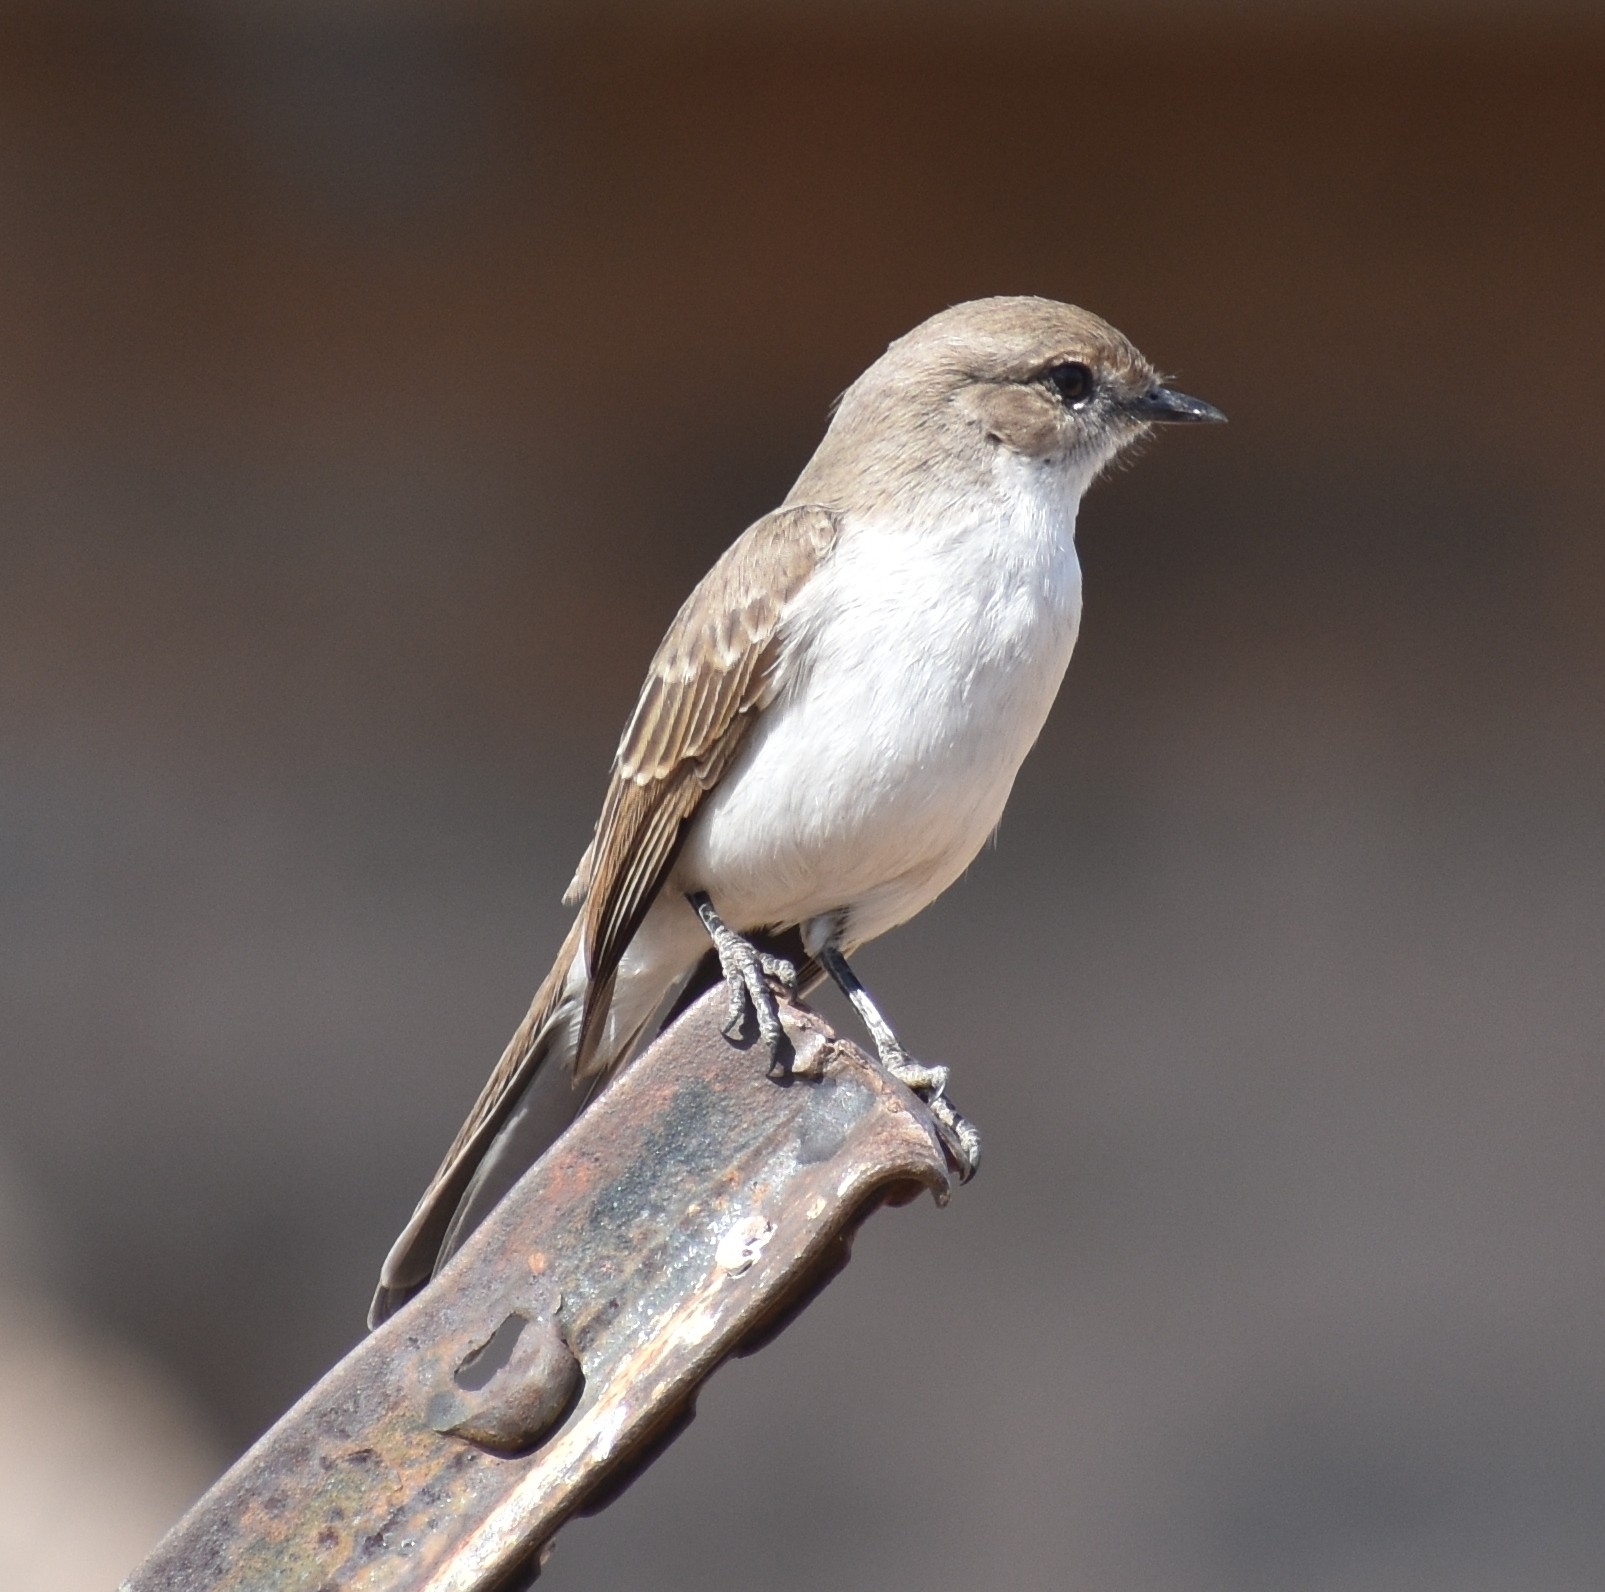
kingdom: Animalia
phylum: Chordata
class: Aves
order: Passeriformes
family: Muscicapidae
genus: Bradornis
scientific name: Bradornis mariquensis
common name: Marico flycatcher
